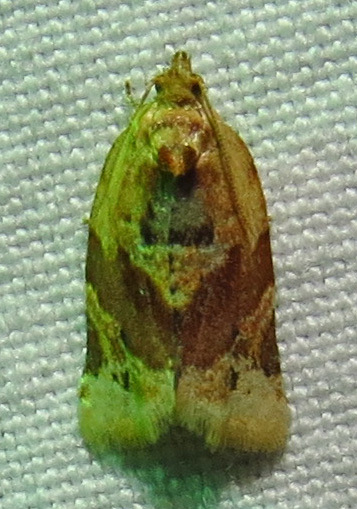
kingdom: Animalia
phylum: Arthropoda
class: Insecta
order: Lepidoptera
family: Tortricidae
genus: Argyrotaenia
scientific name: Argyrotaenia velutinana
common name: Red-banded leafroller moth
